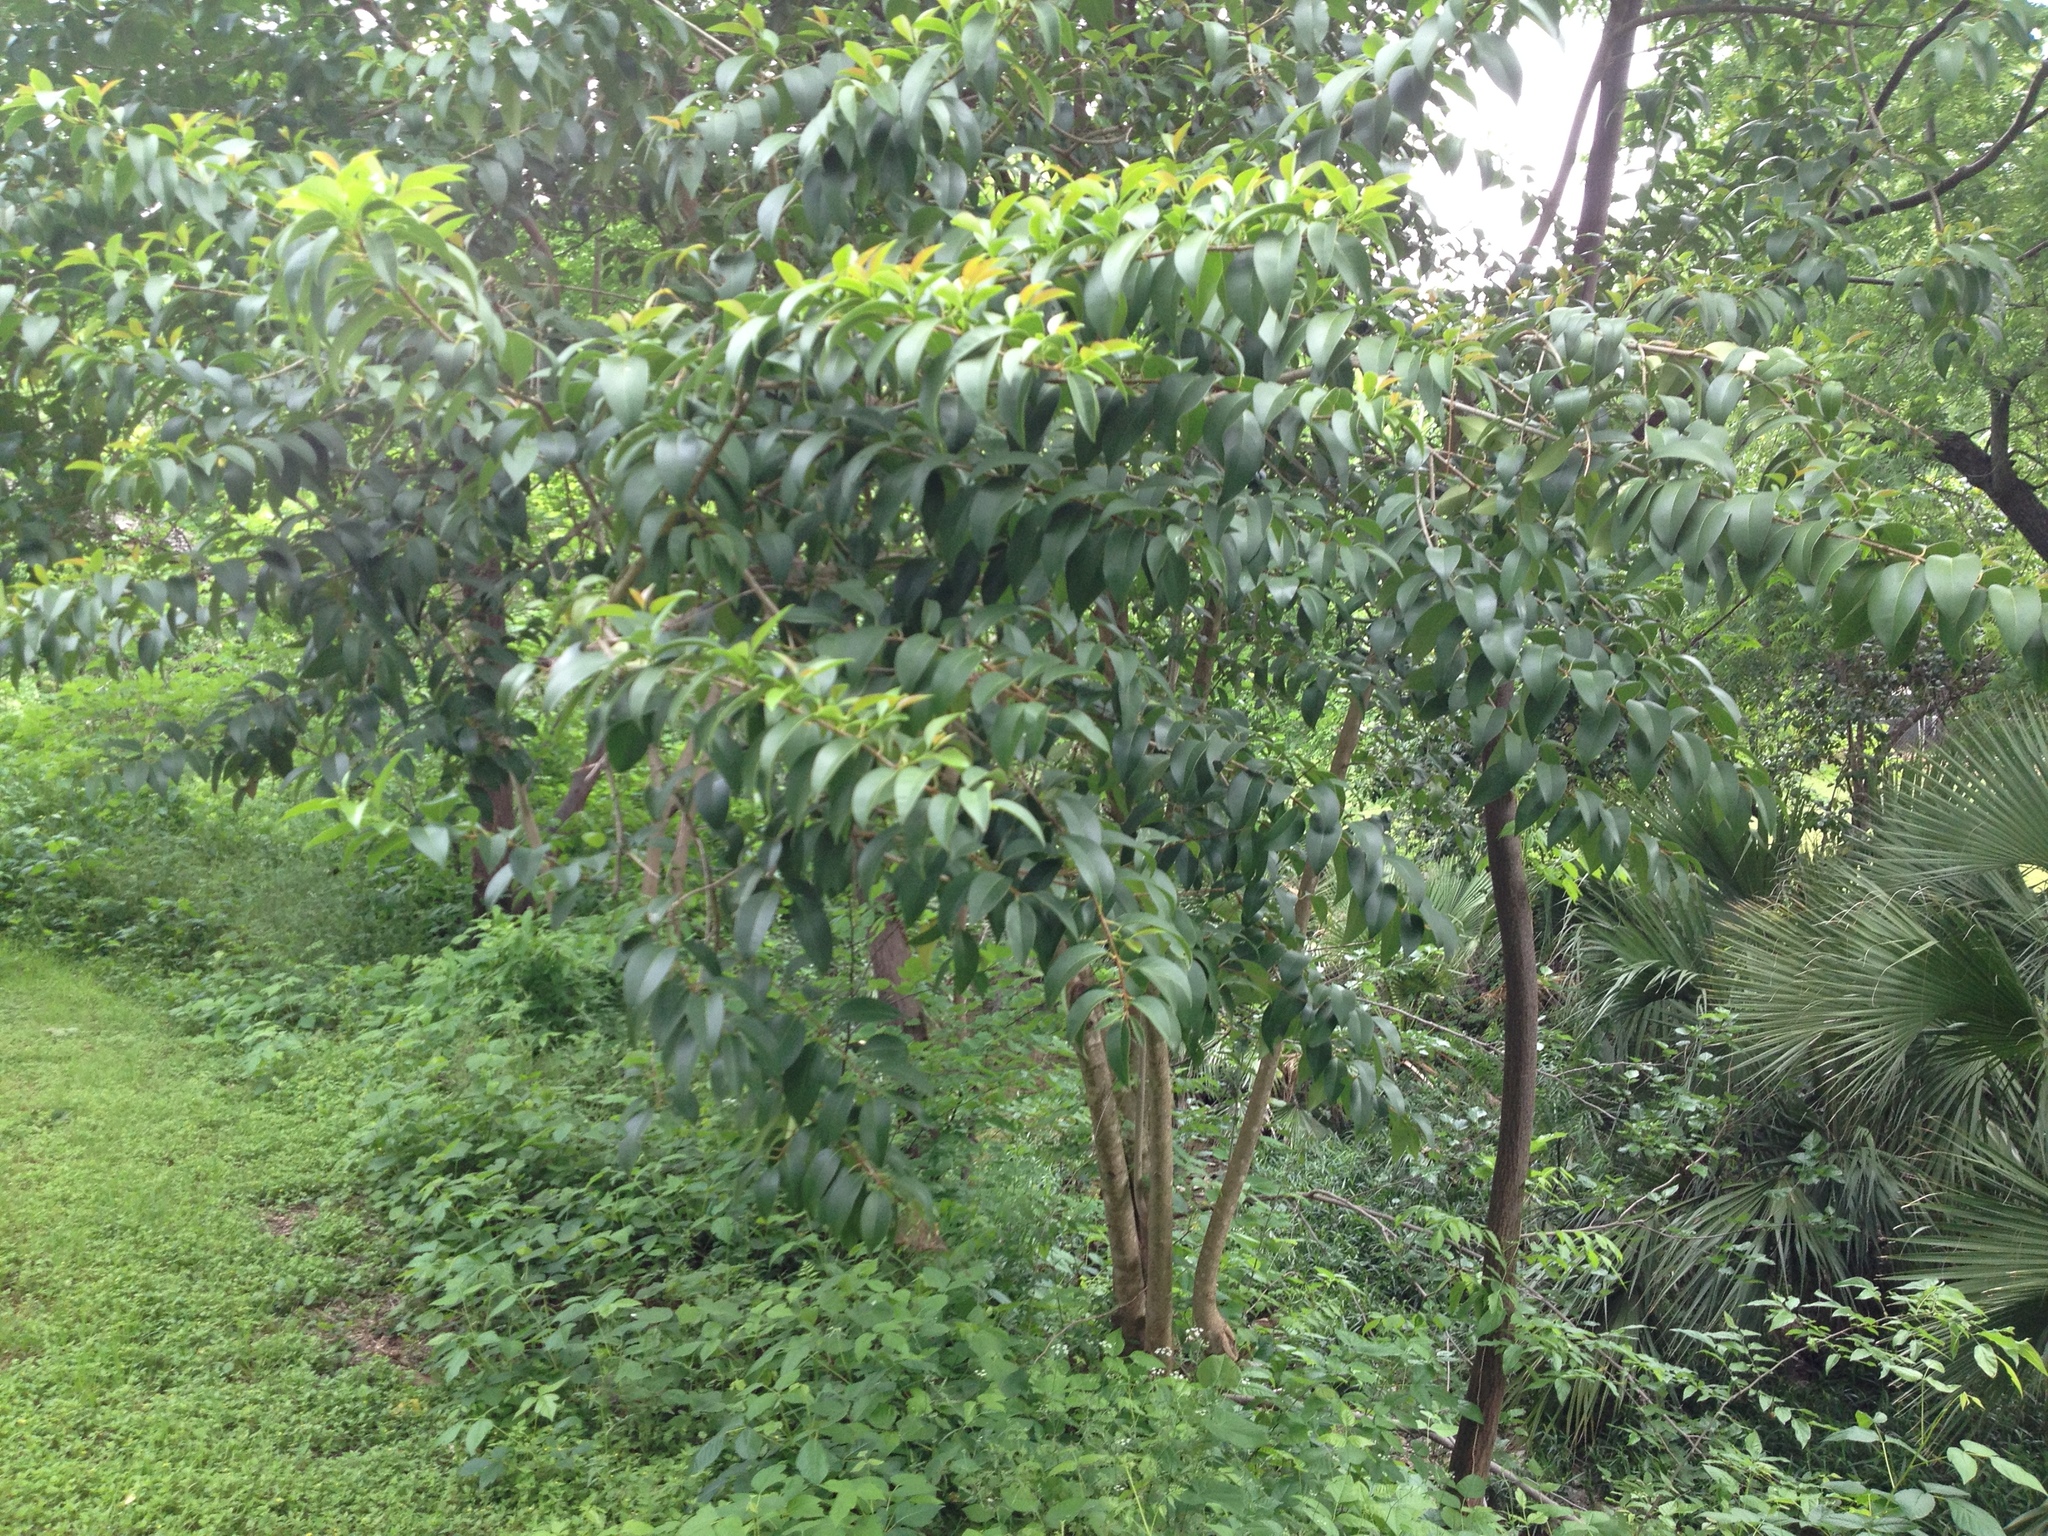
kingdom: Plantae
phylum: Tracheophyta
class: Magnoliopsida
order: Lamiales
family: Oleaceae
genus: Ligustrum
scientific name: Ligustrum lucidum
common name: Glossy privet
